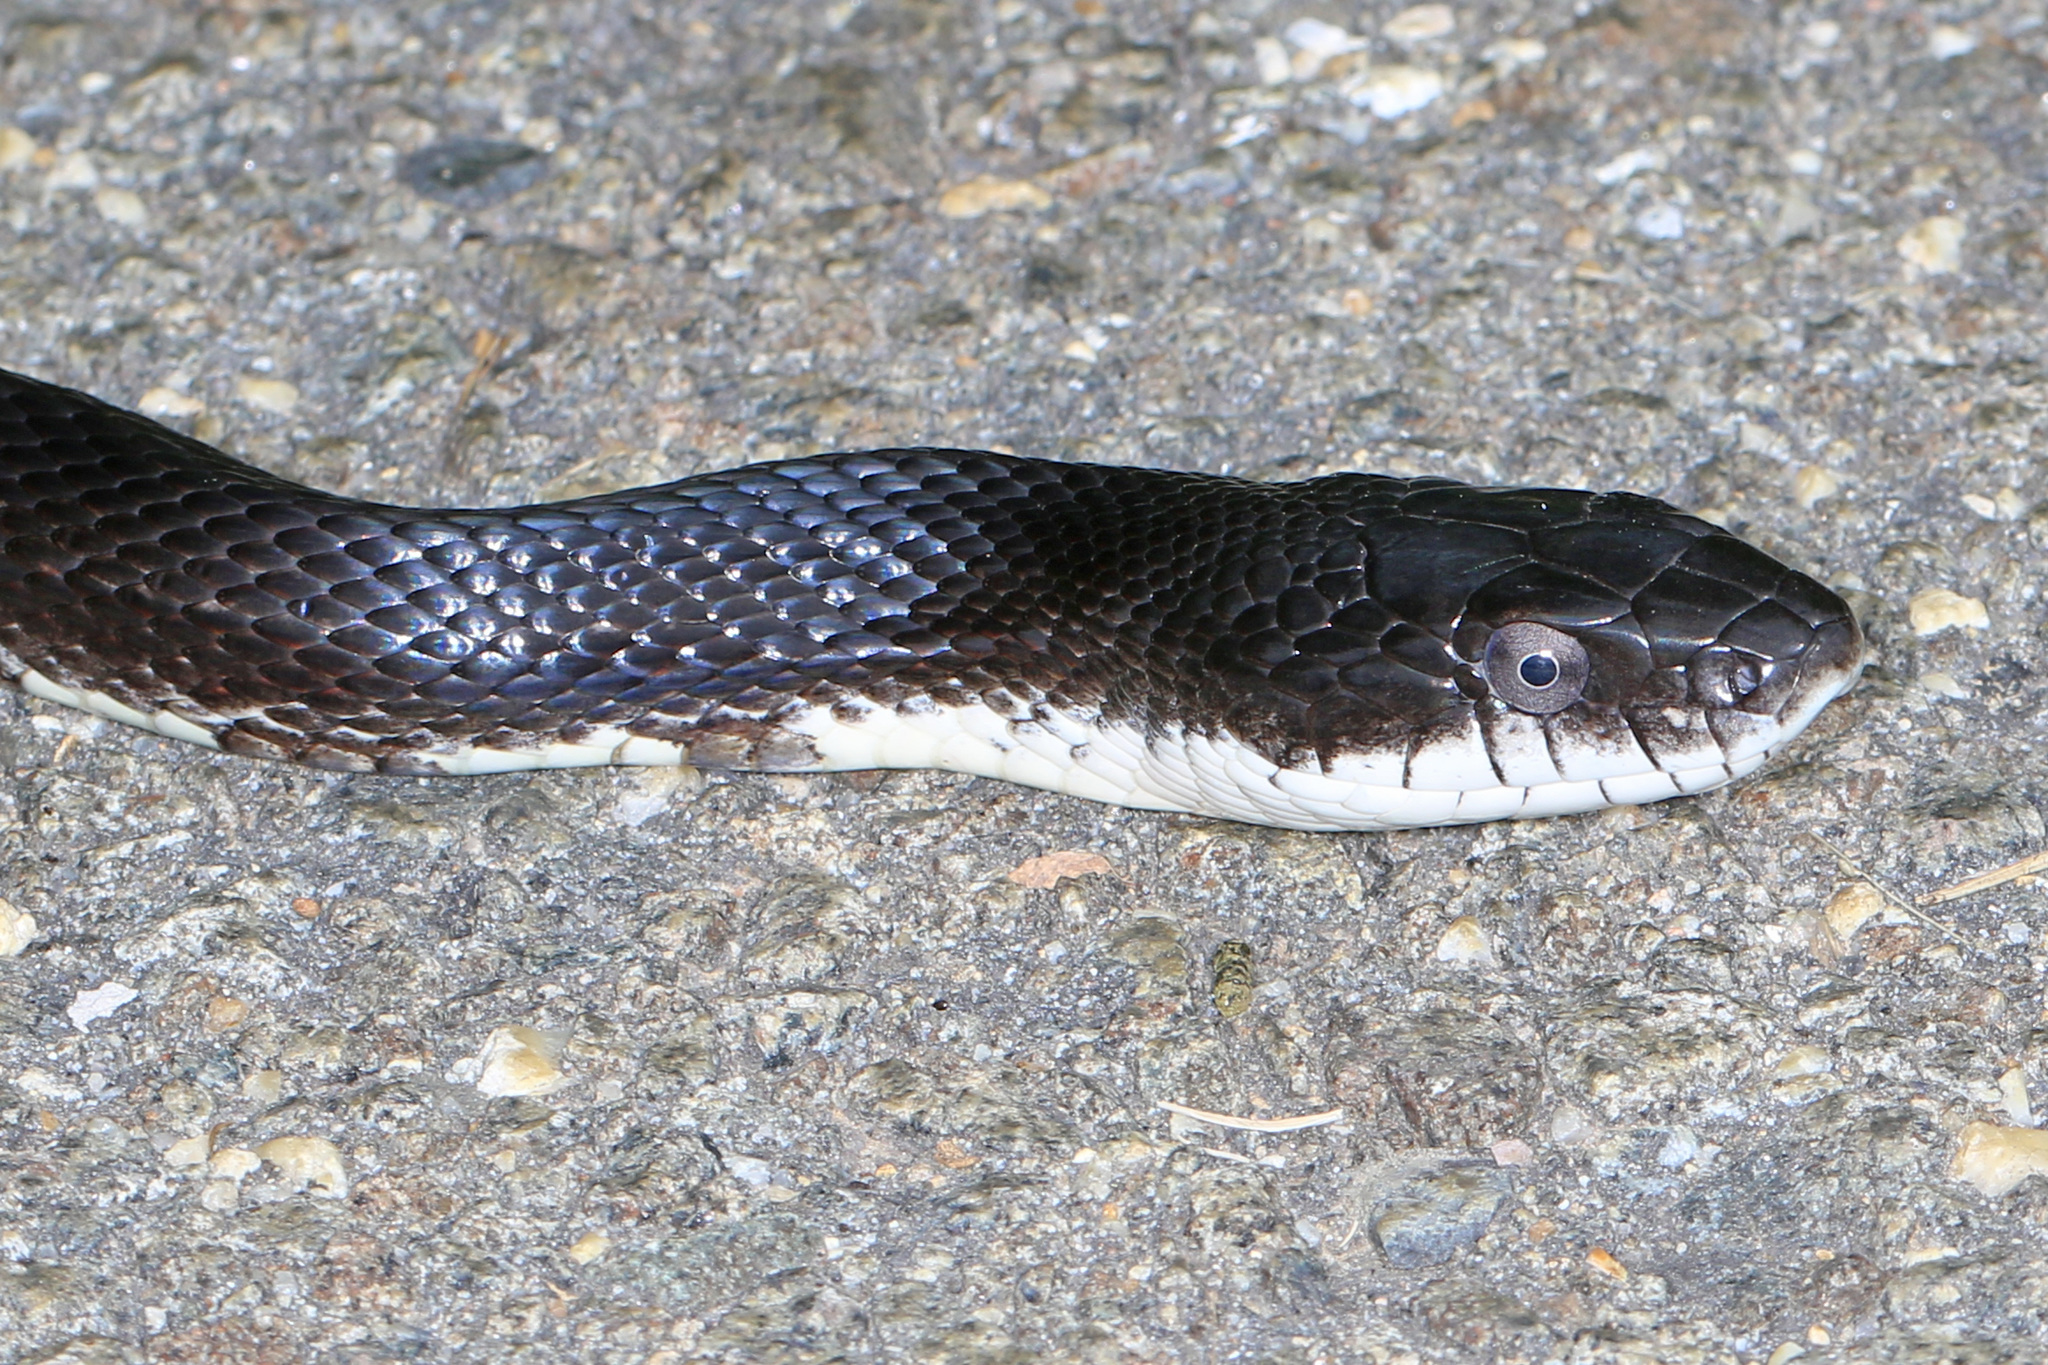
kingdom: Animalia
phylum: Chordata
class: Squamata
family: Colubridae
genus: Pantherophis
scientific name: Pantherophis alleghaniensis
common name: Eastern rat snake
